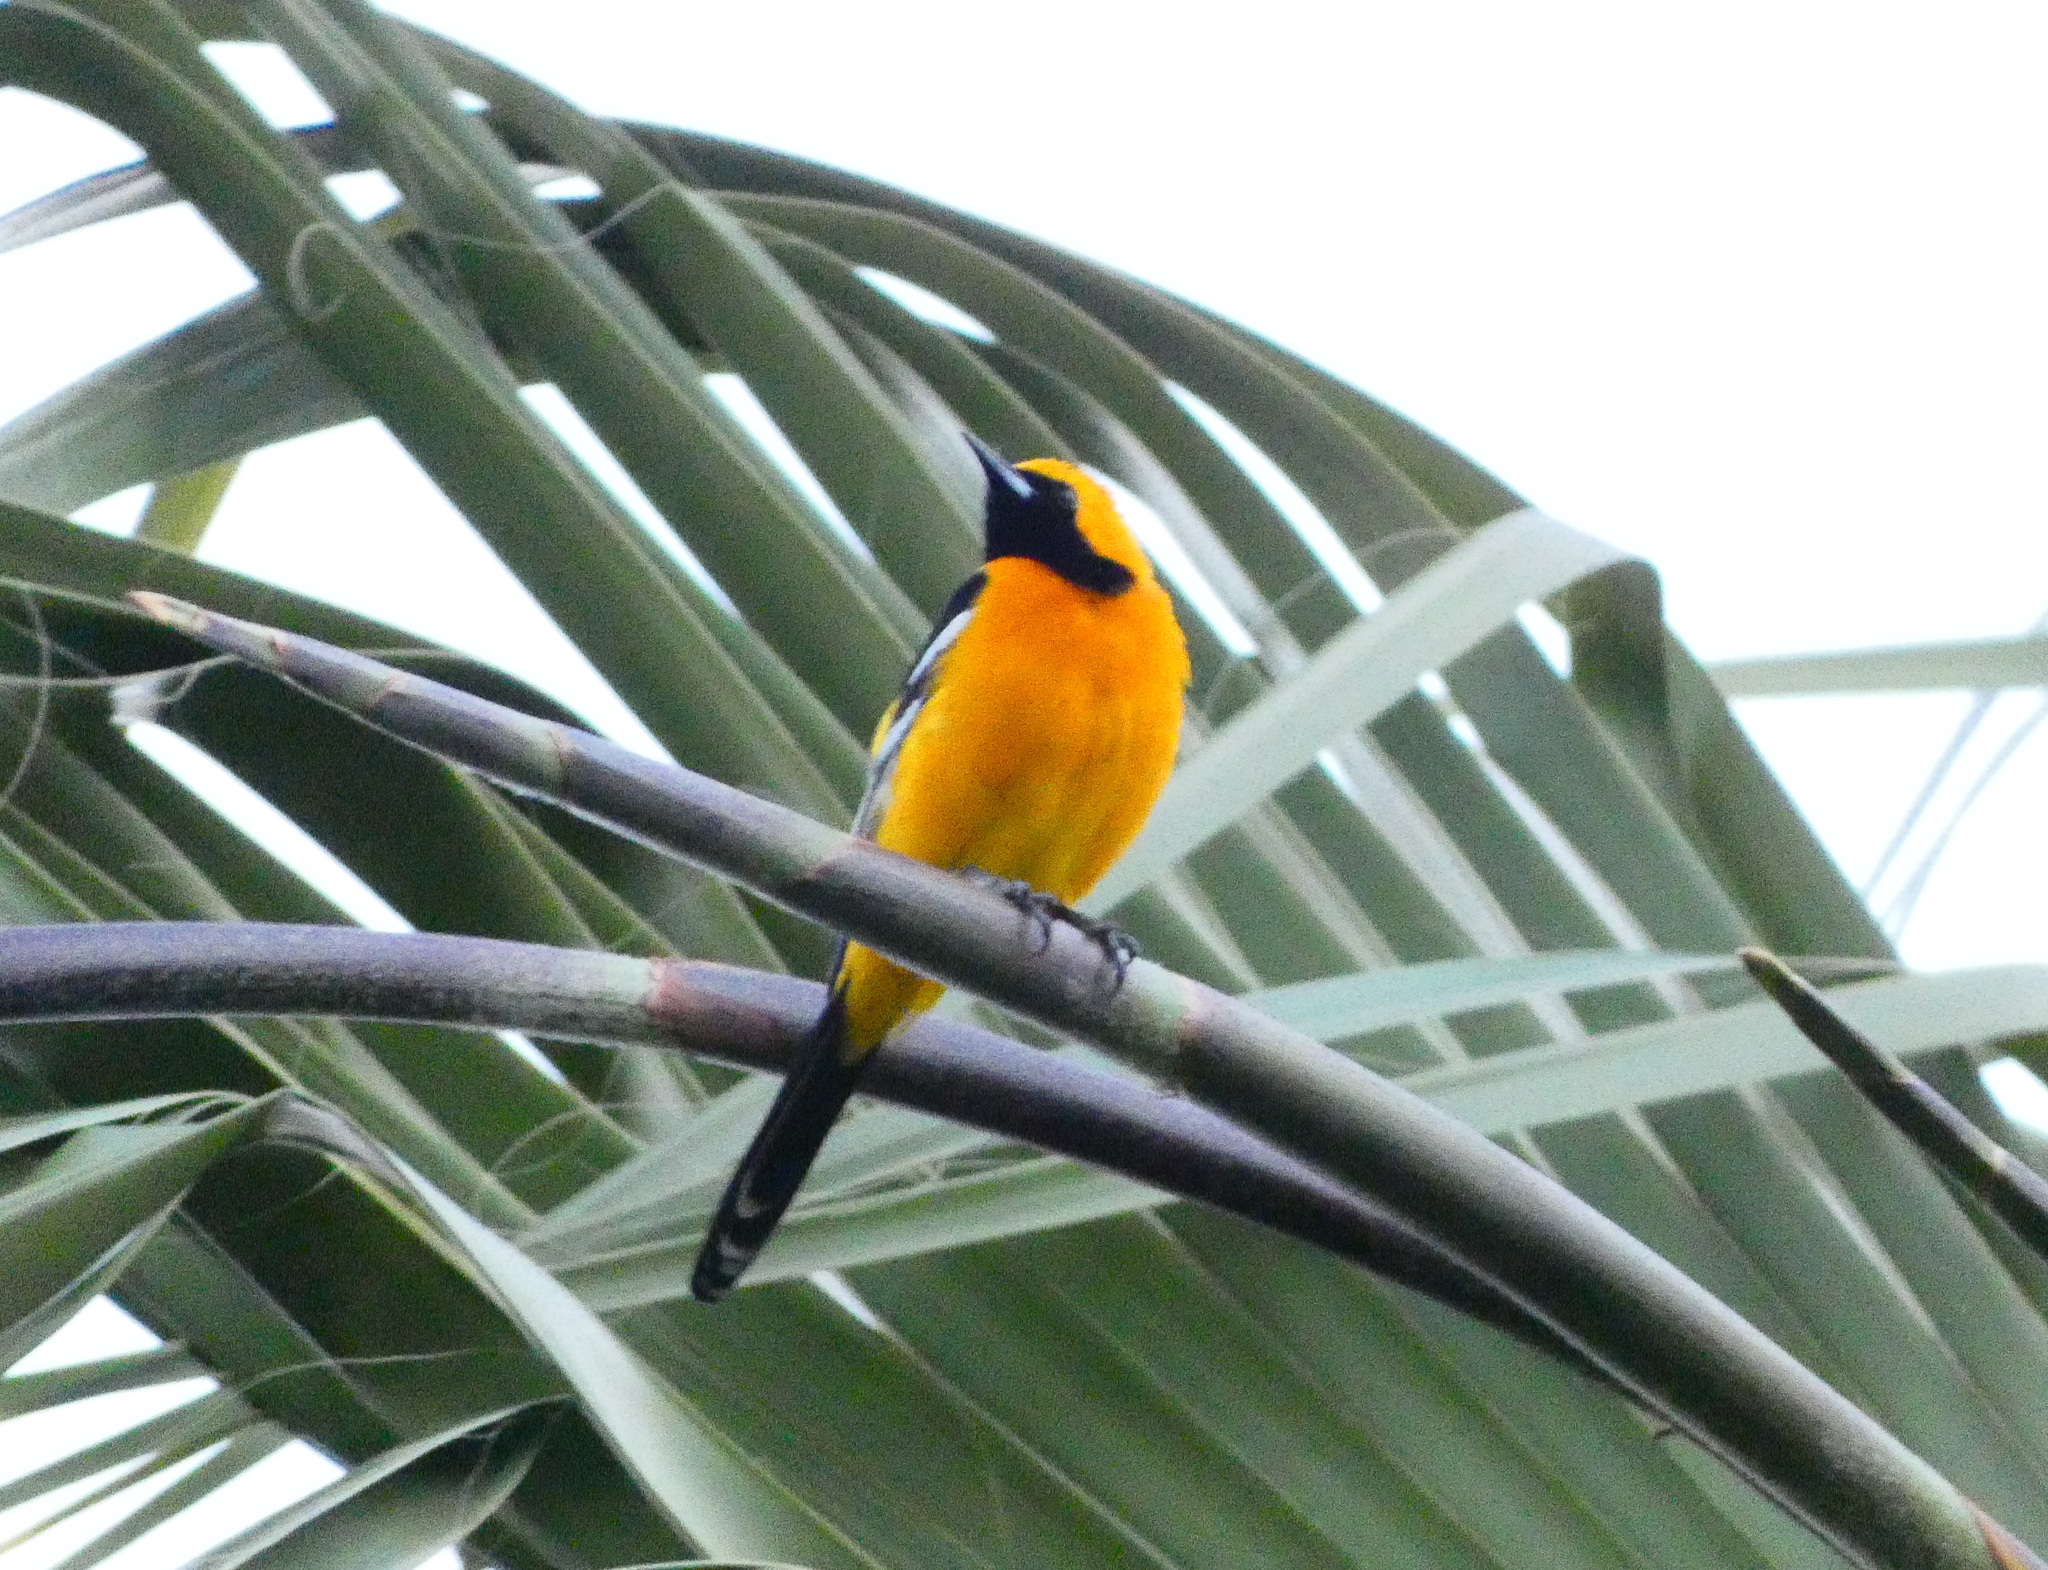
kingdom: Animalia
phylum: Chordata
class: Aves
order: Passeriformes
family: Icteridae
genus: Icterus
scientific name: Icterus cucullatus
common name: Hooded oriole
